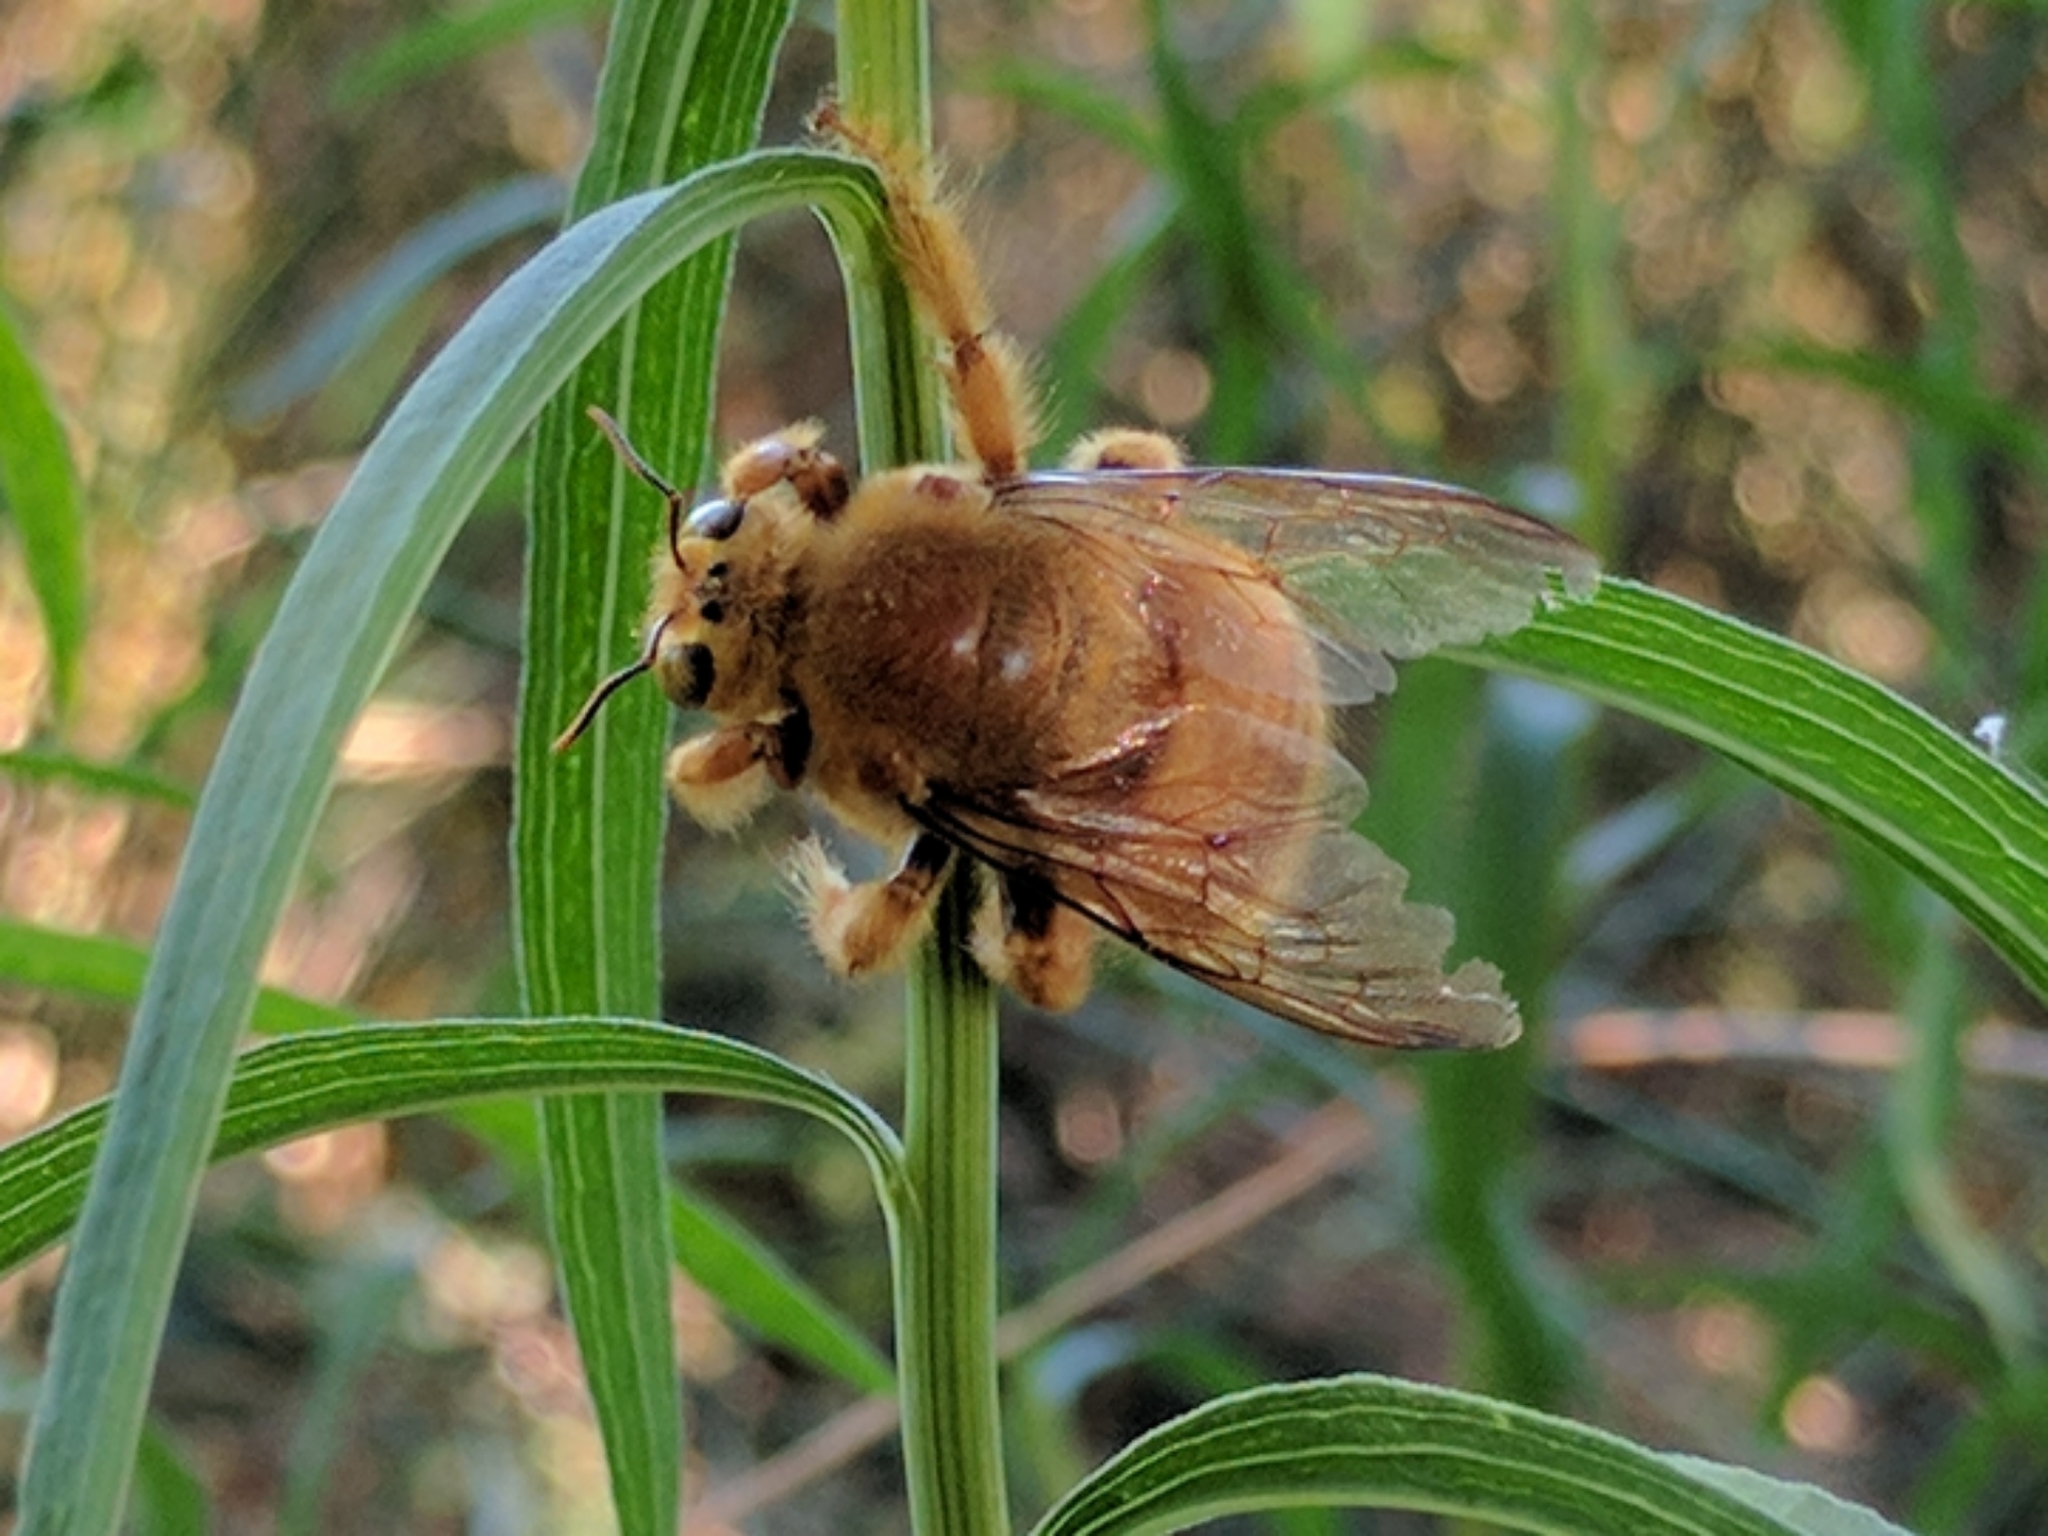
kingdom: Animalia
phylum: Arthropoda
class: Insecta
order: Hymenoptera
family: Apidae
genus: Xylocopa
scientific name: Xylocopa sonorina
